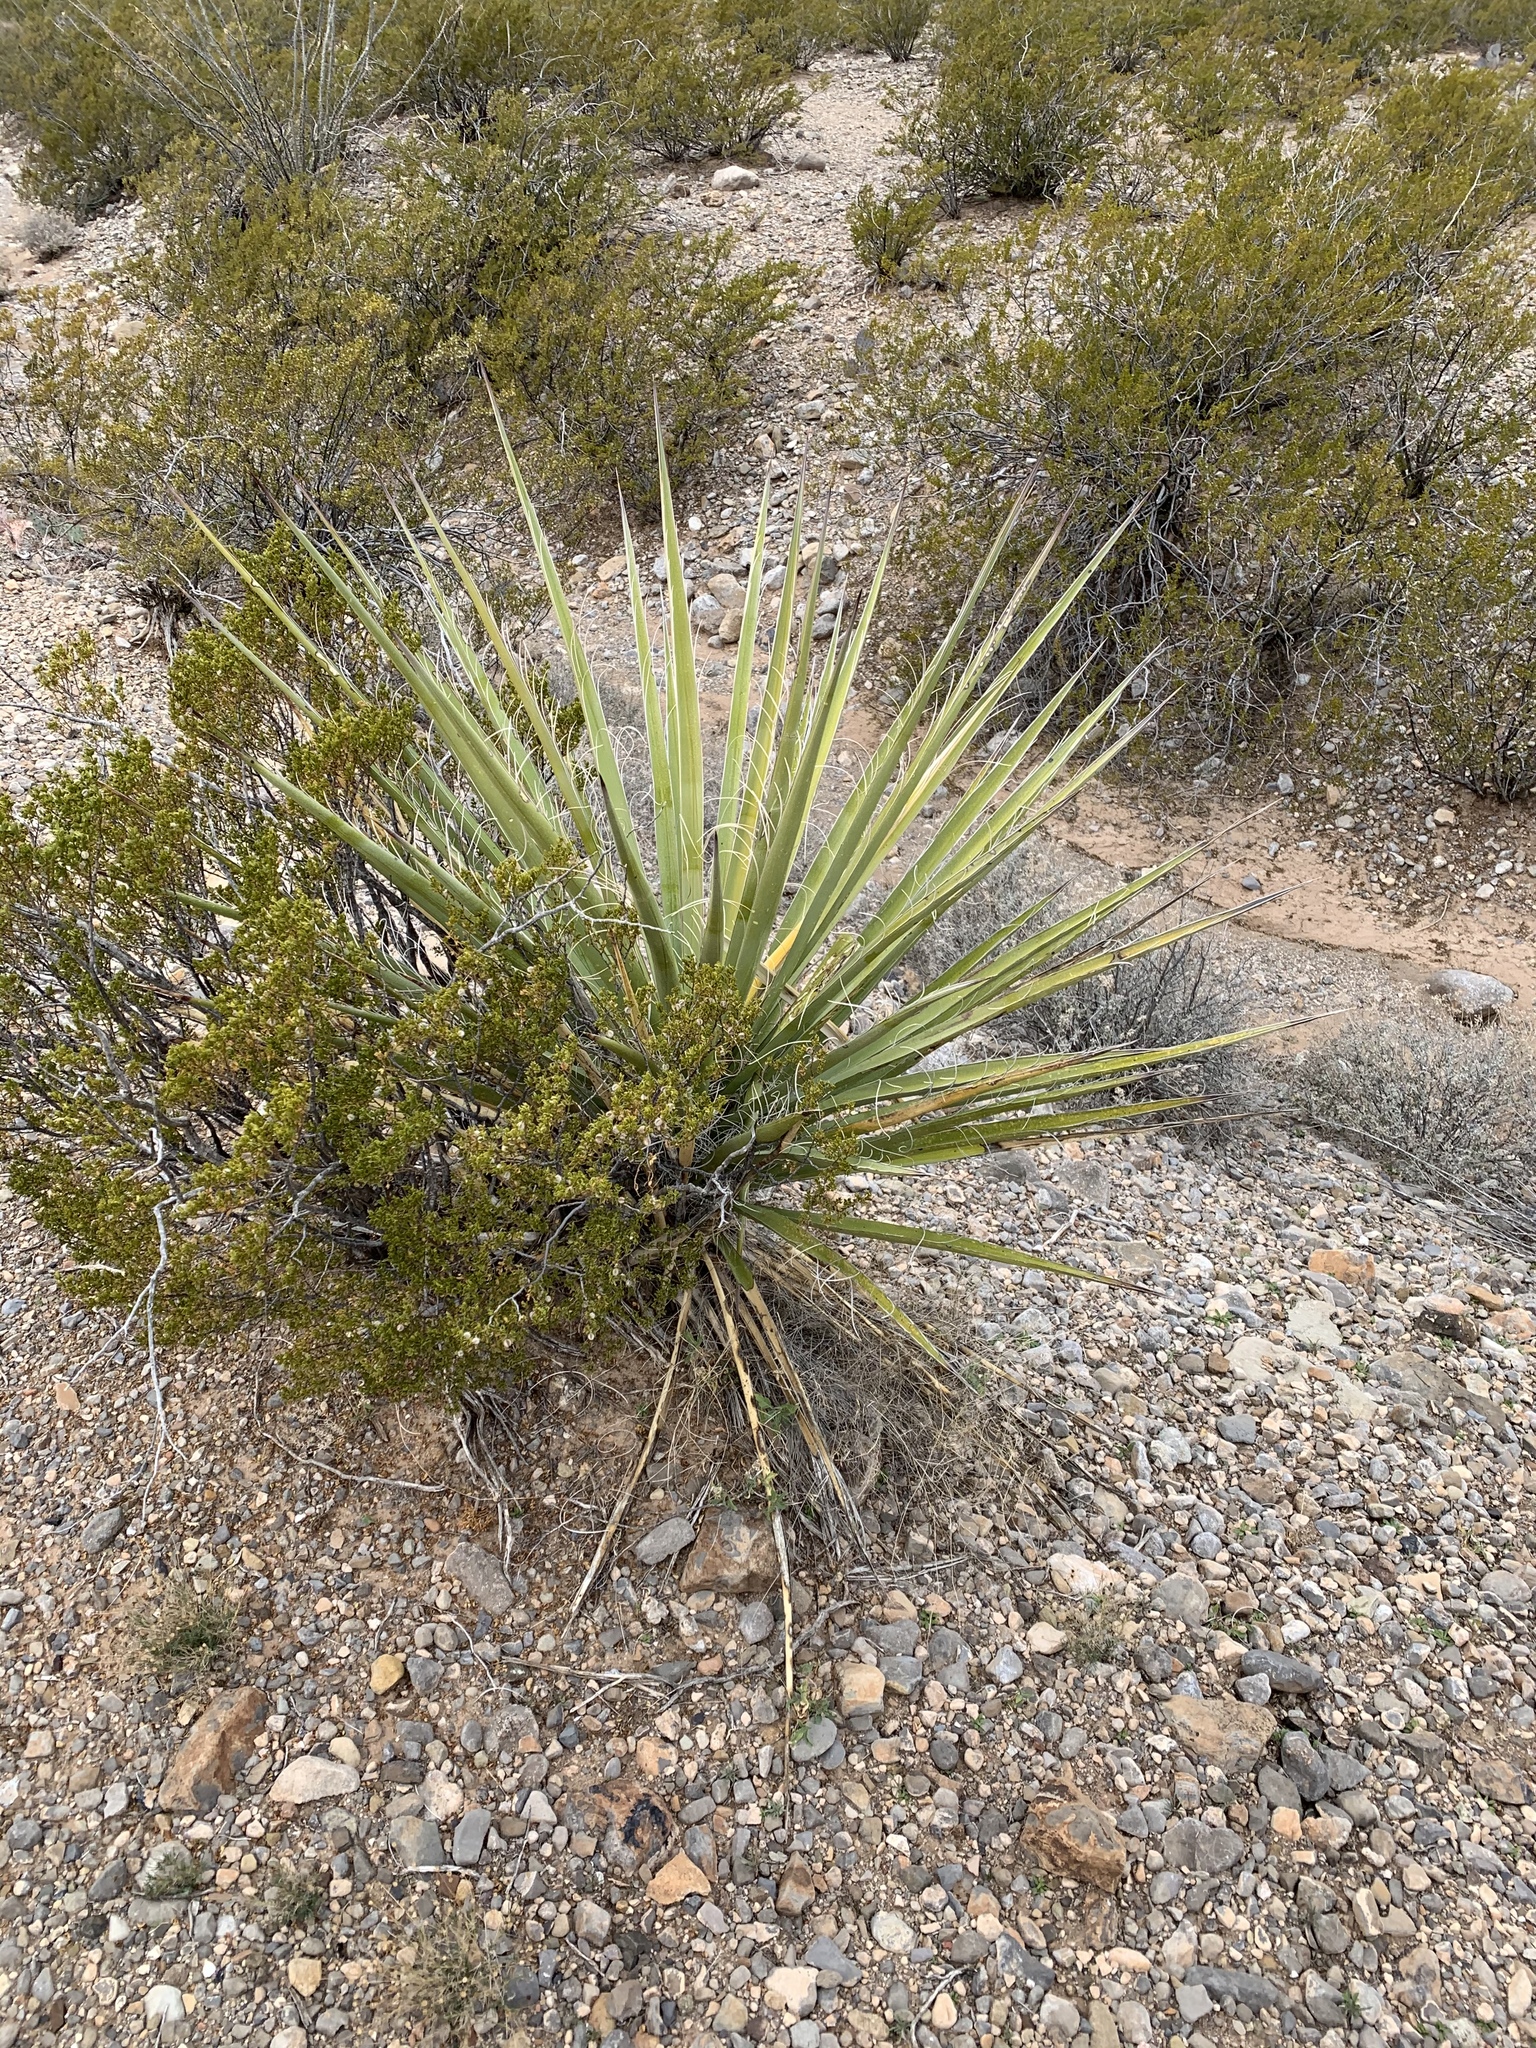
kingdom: Plantae
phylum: Tracheophyta
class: Liliopsida
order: Asparagales
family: Asparagaceae
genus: Yucca
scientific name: Yucca treculiana
